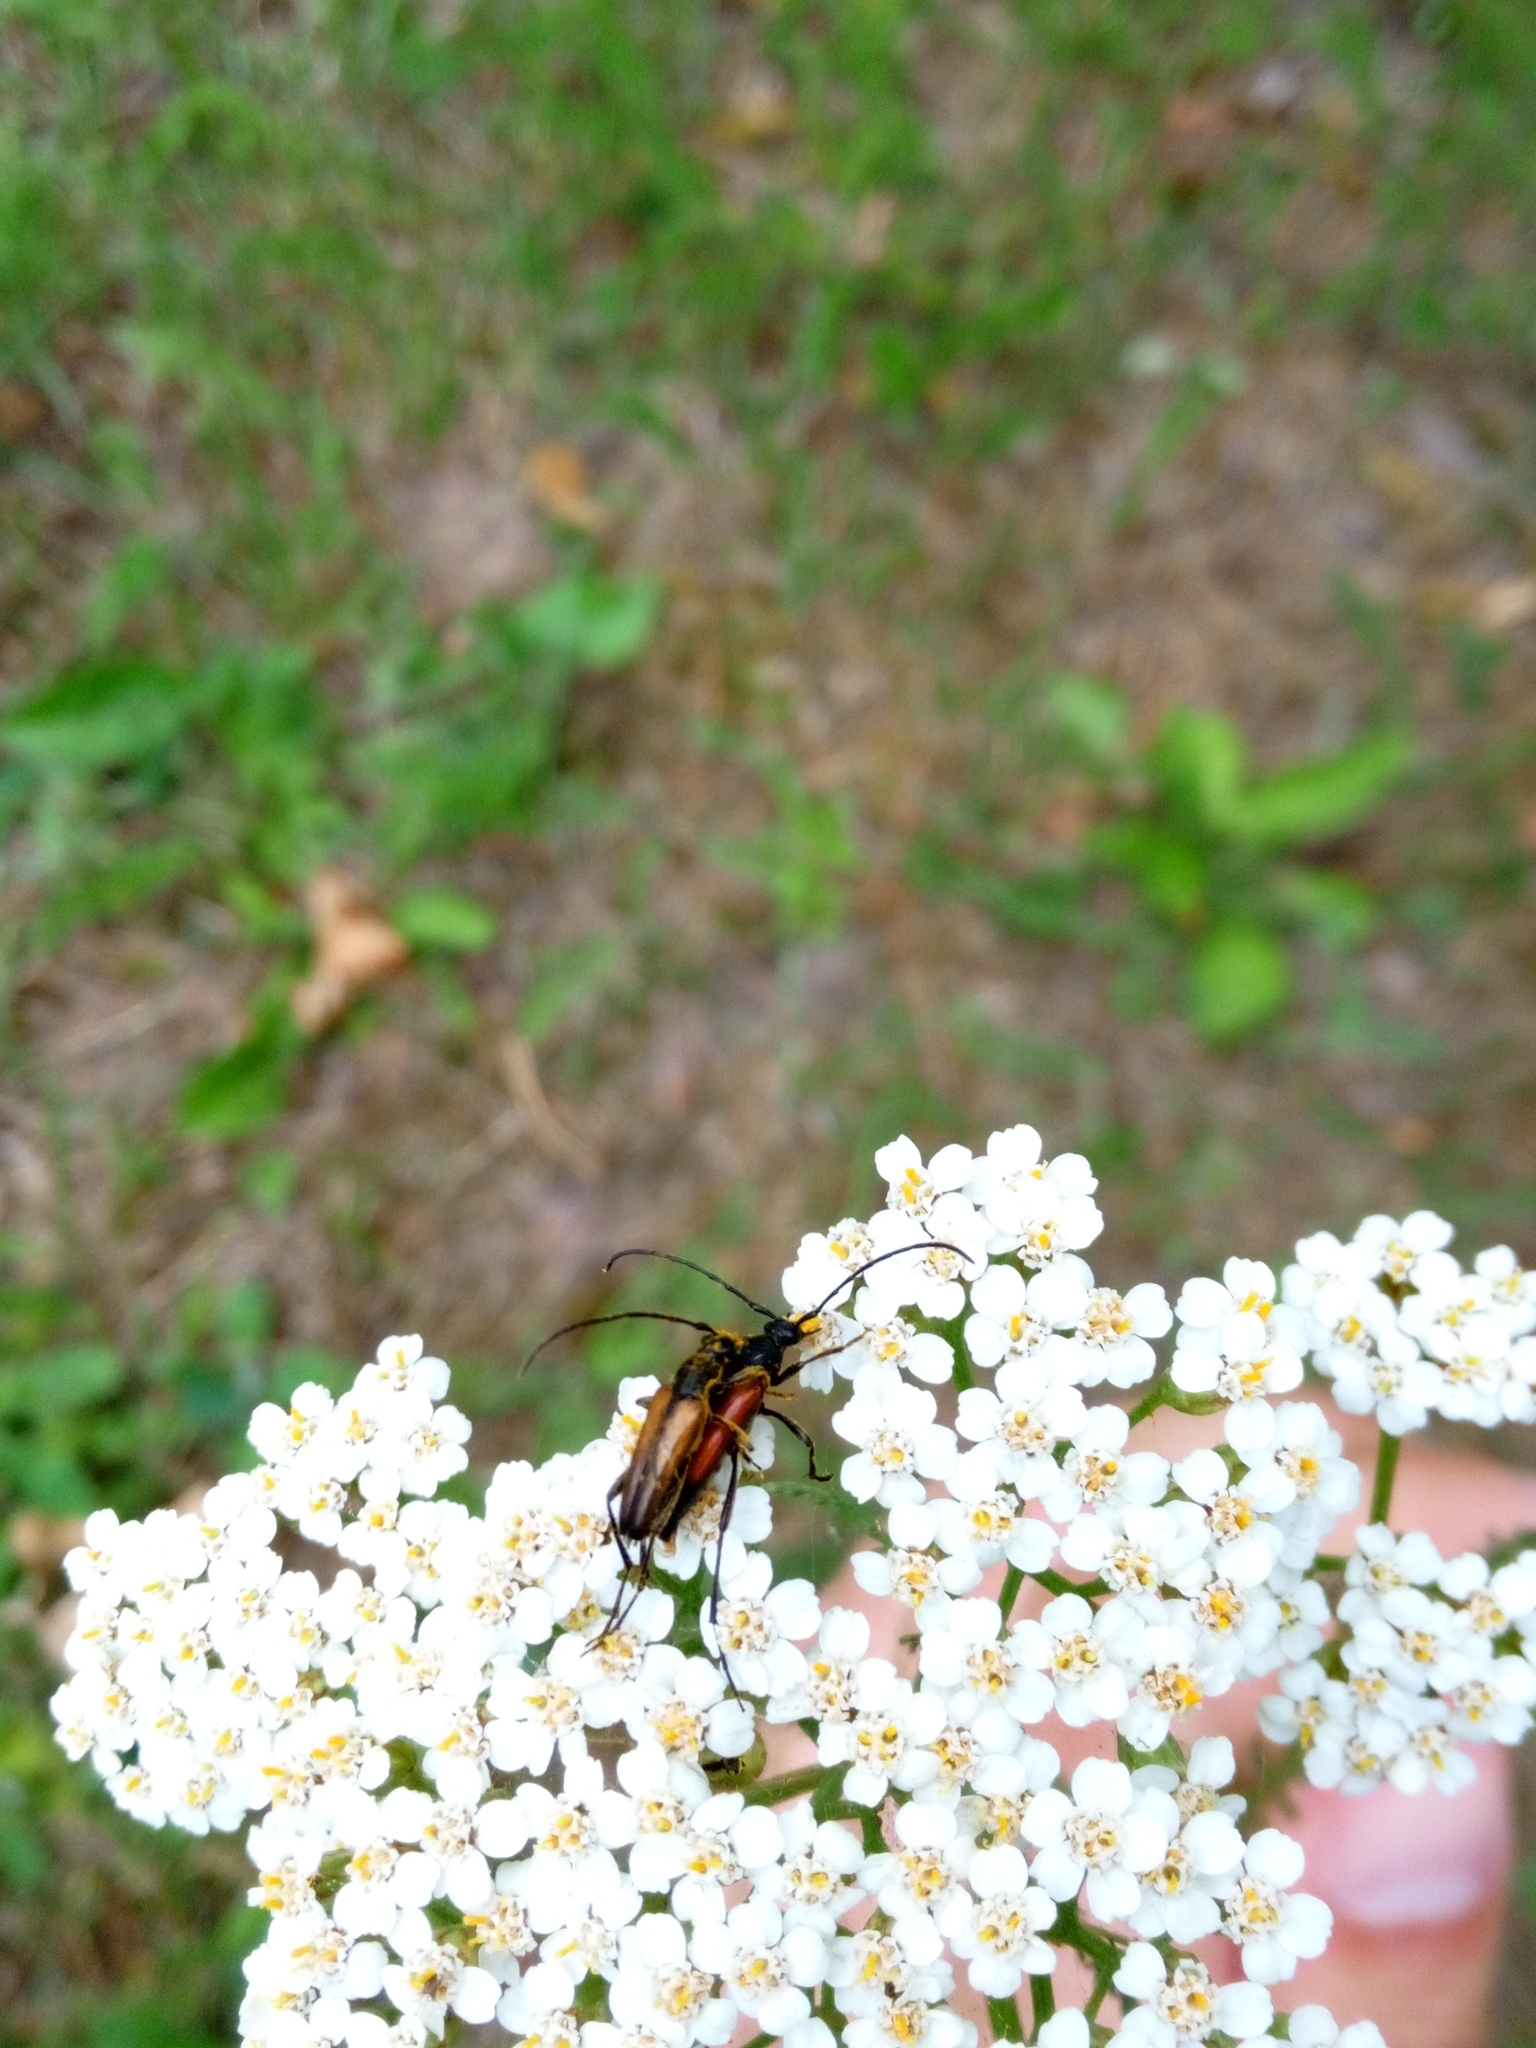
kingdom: Animalia
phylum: Arthropoda
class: Insecta
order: Coleoptera
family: Cerambycidae
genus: Stenurella
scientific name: Stenurella melanura
